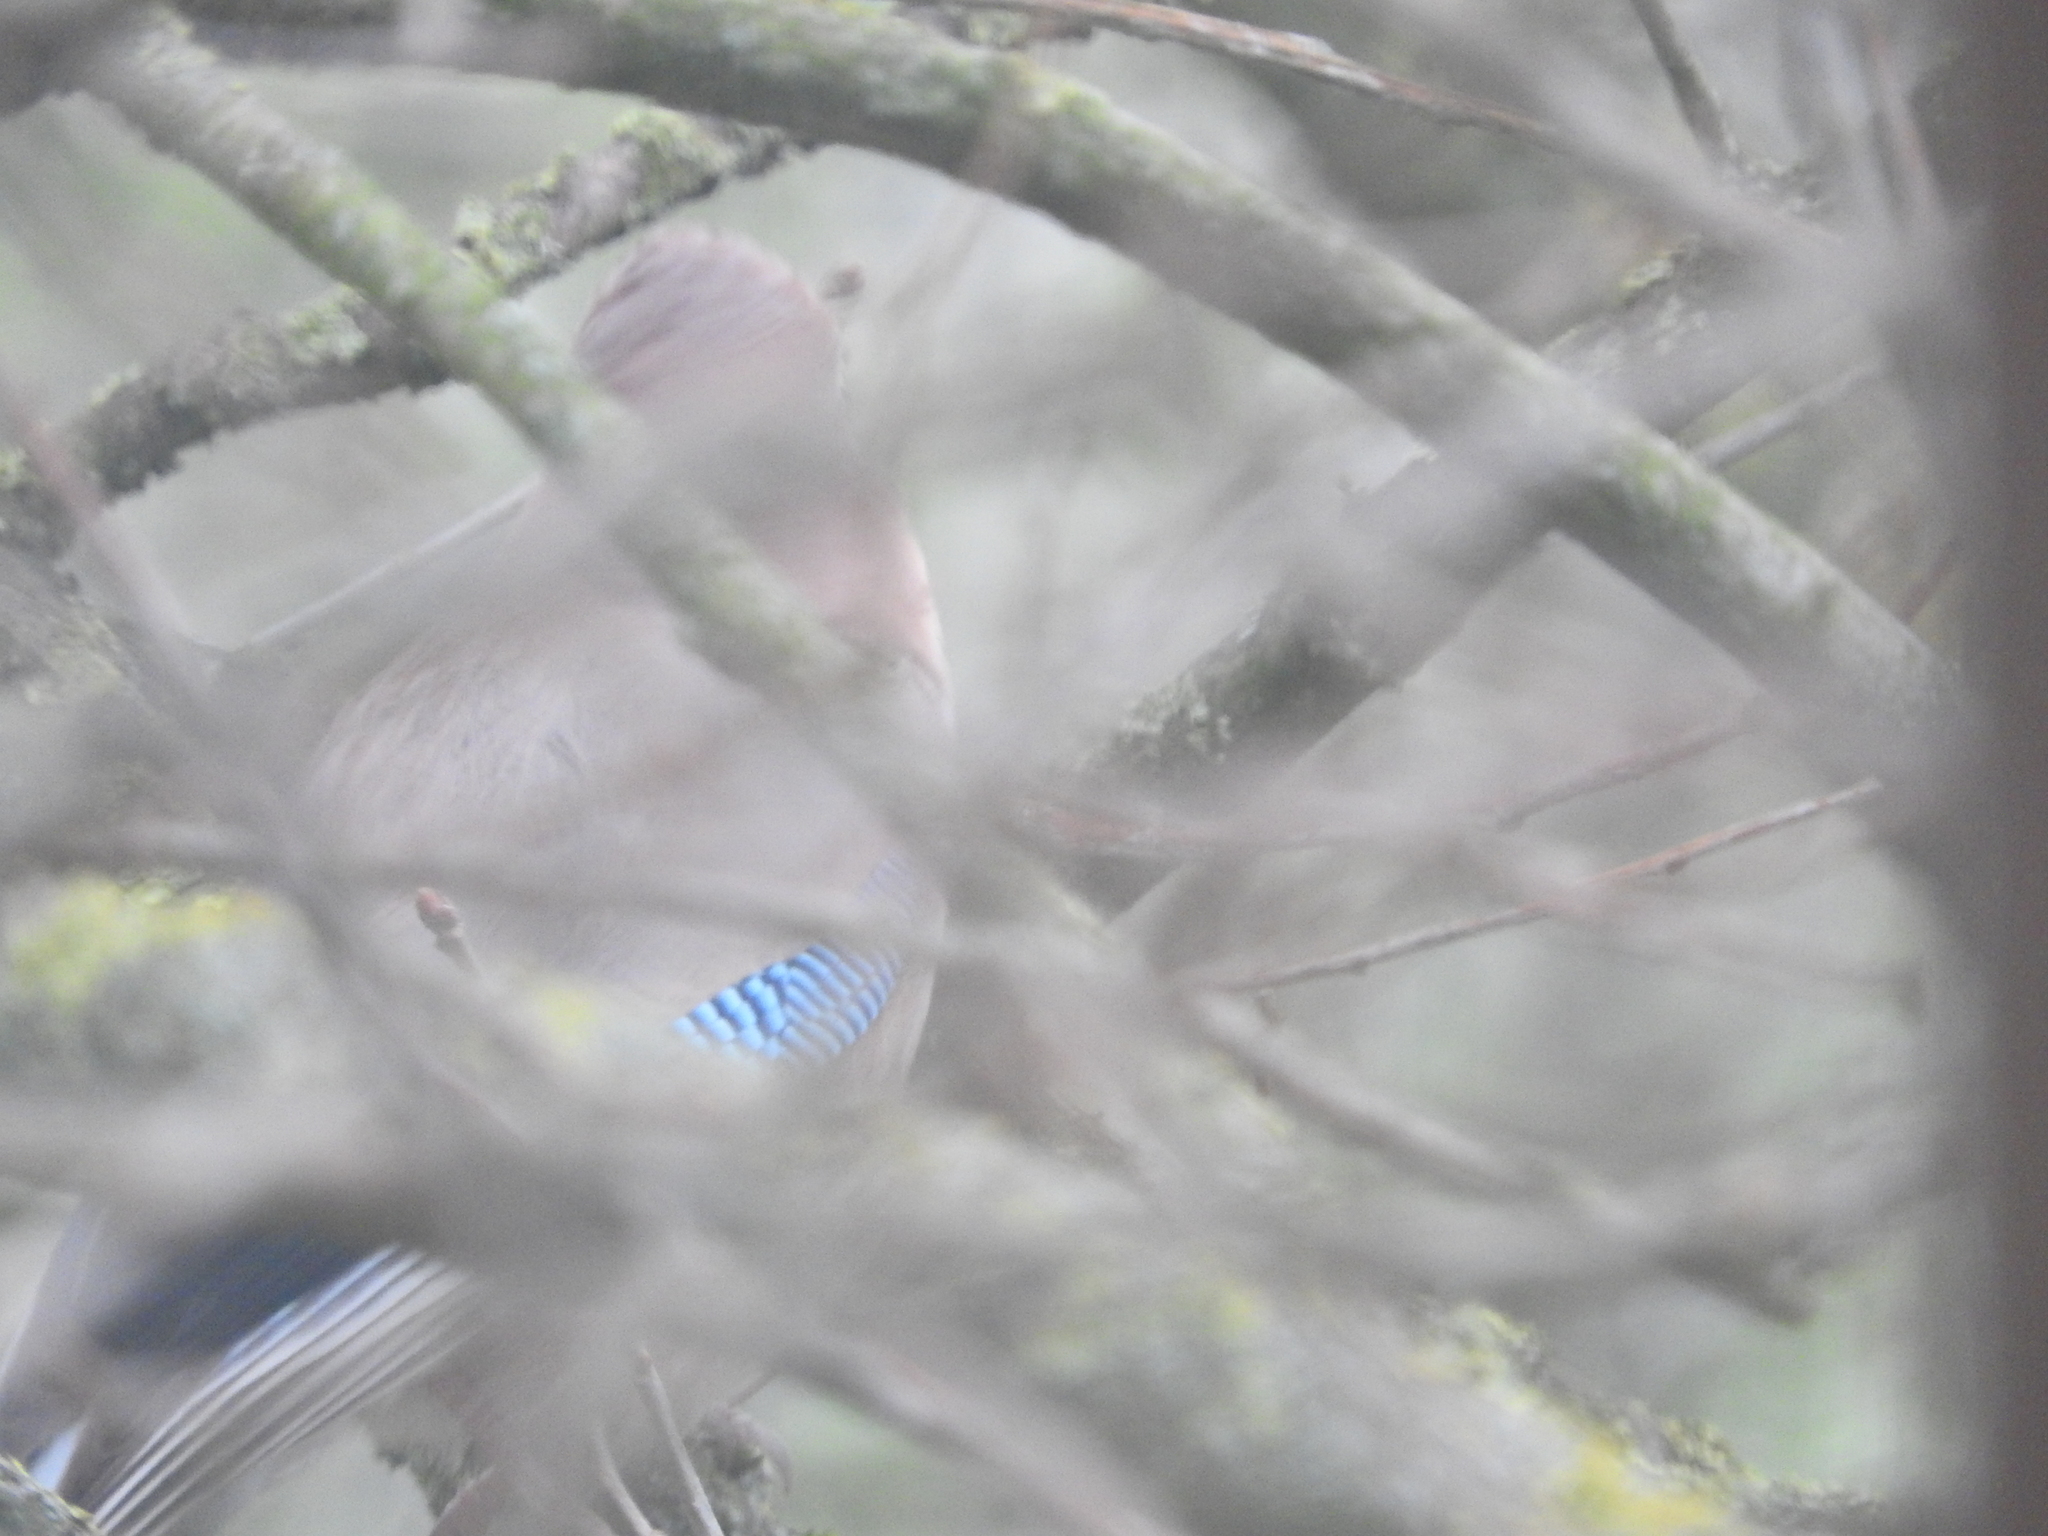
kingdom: Animalia
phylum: Chordata
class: Aves
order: Passeriformes
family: Corvidae
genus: Garrulus
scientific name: Garrulus glandarius
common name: Eurasian jay
